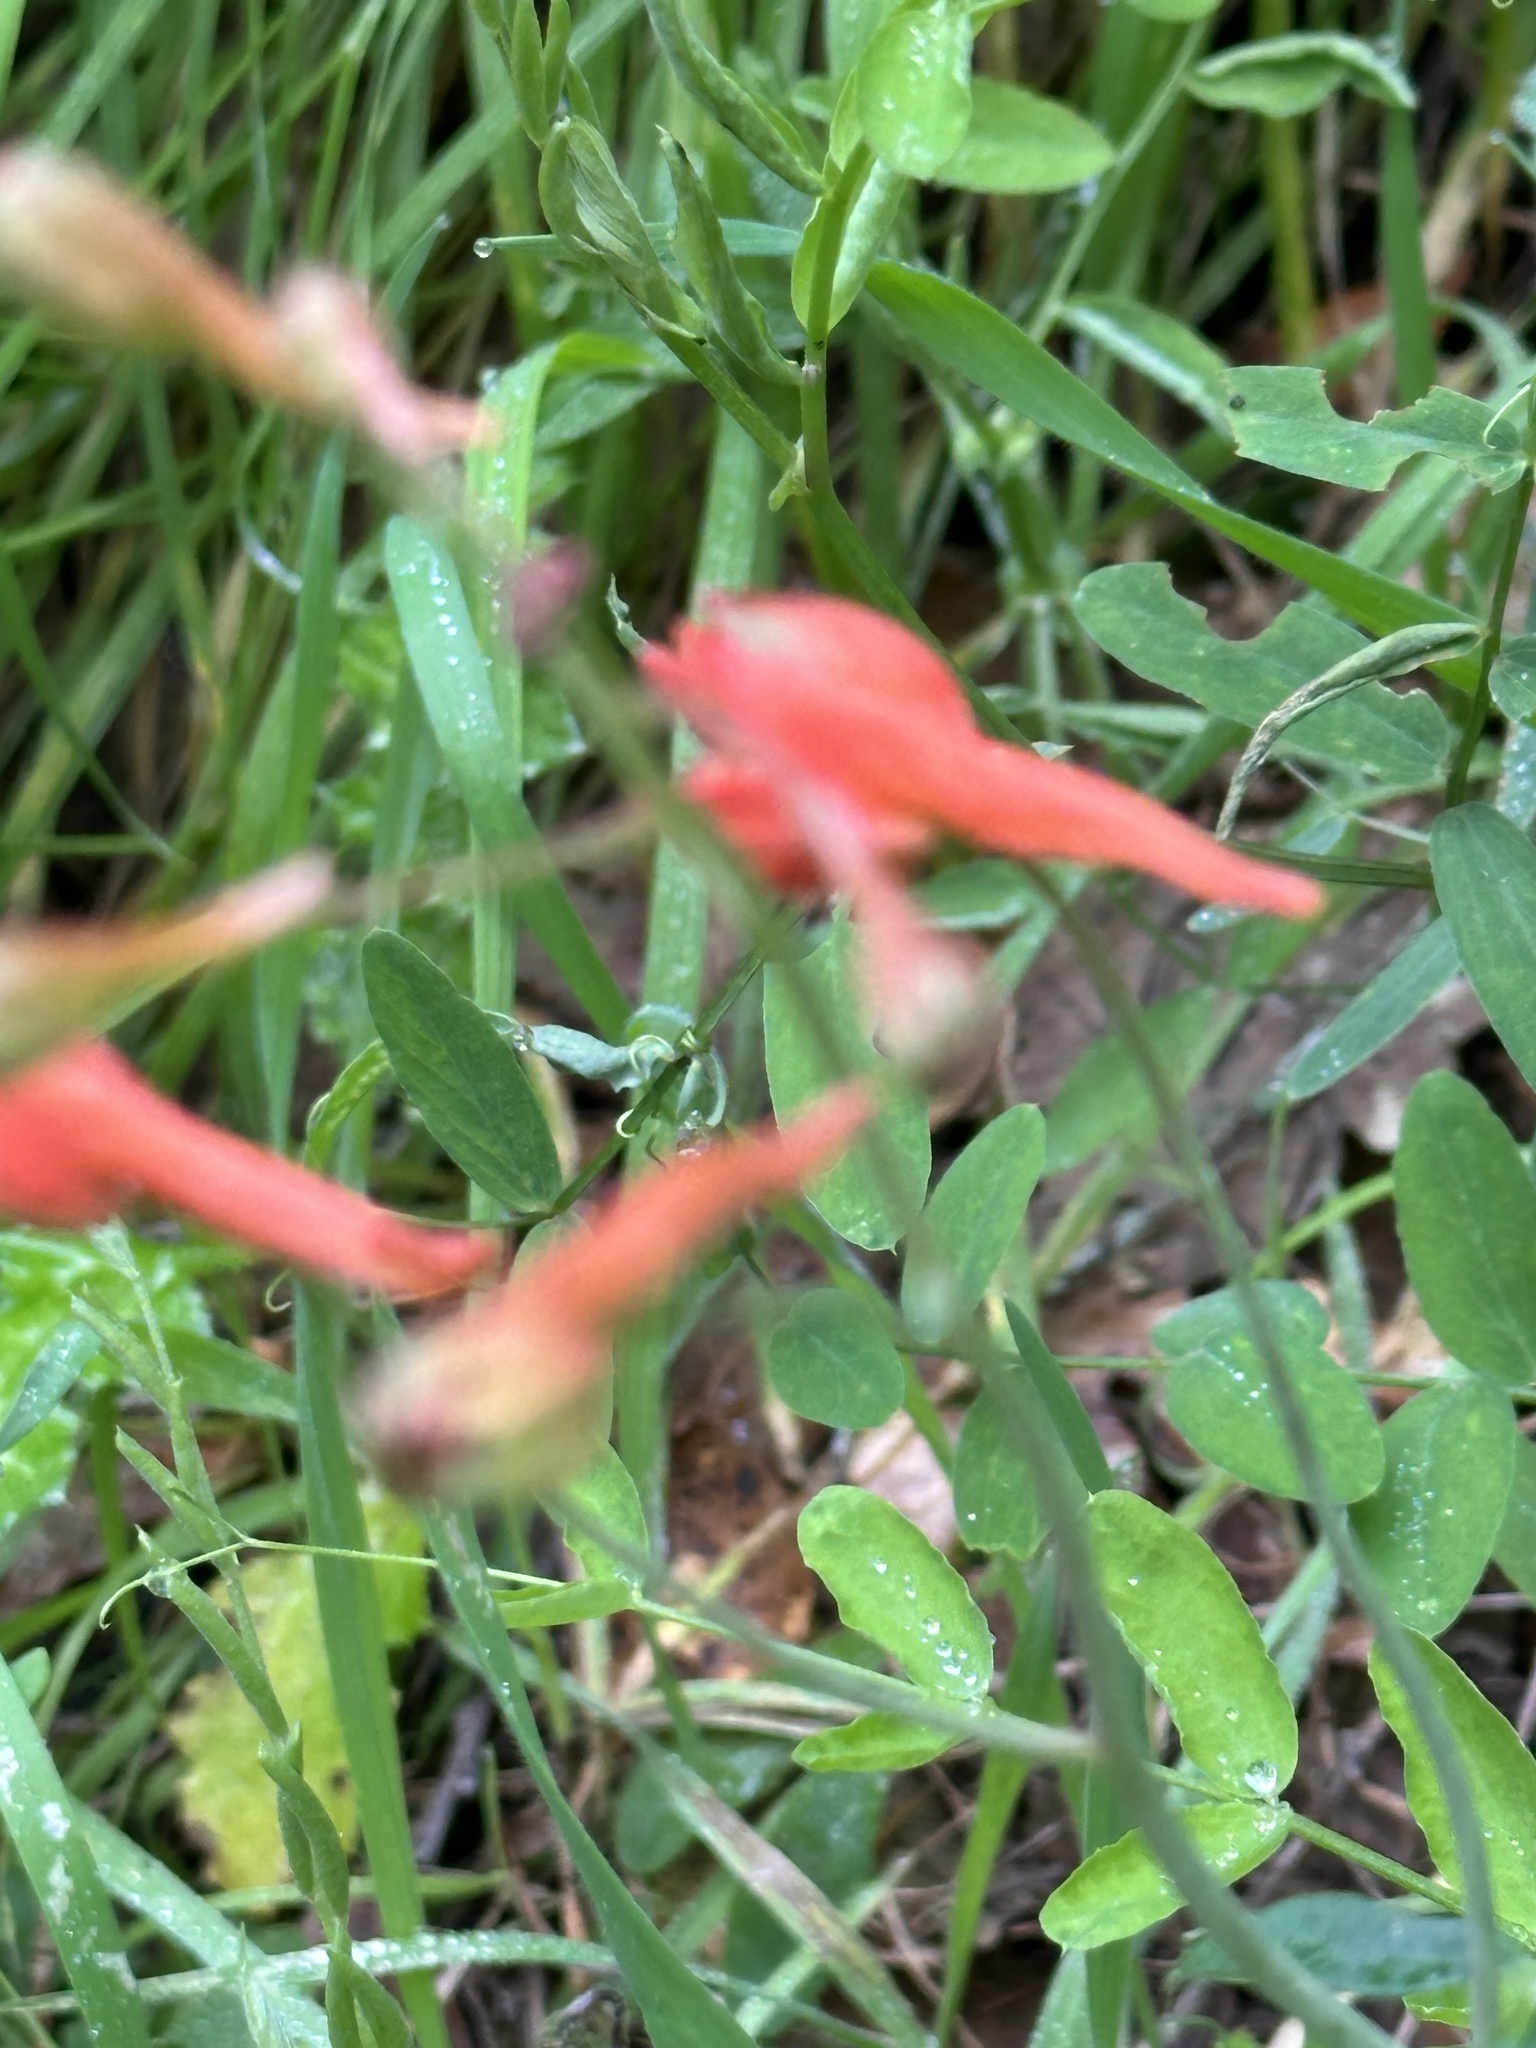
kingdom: Plantae
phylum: Tracheophyta
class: Magnoliopsida
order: Ranunculales
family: Ranunculaceae
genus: Delphinium
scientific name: Delphinium nudicaule
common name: Red larkspur
